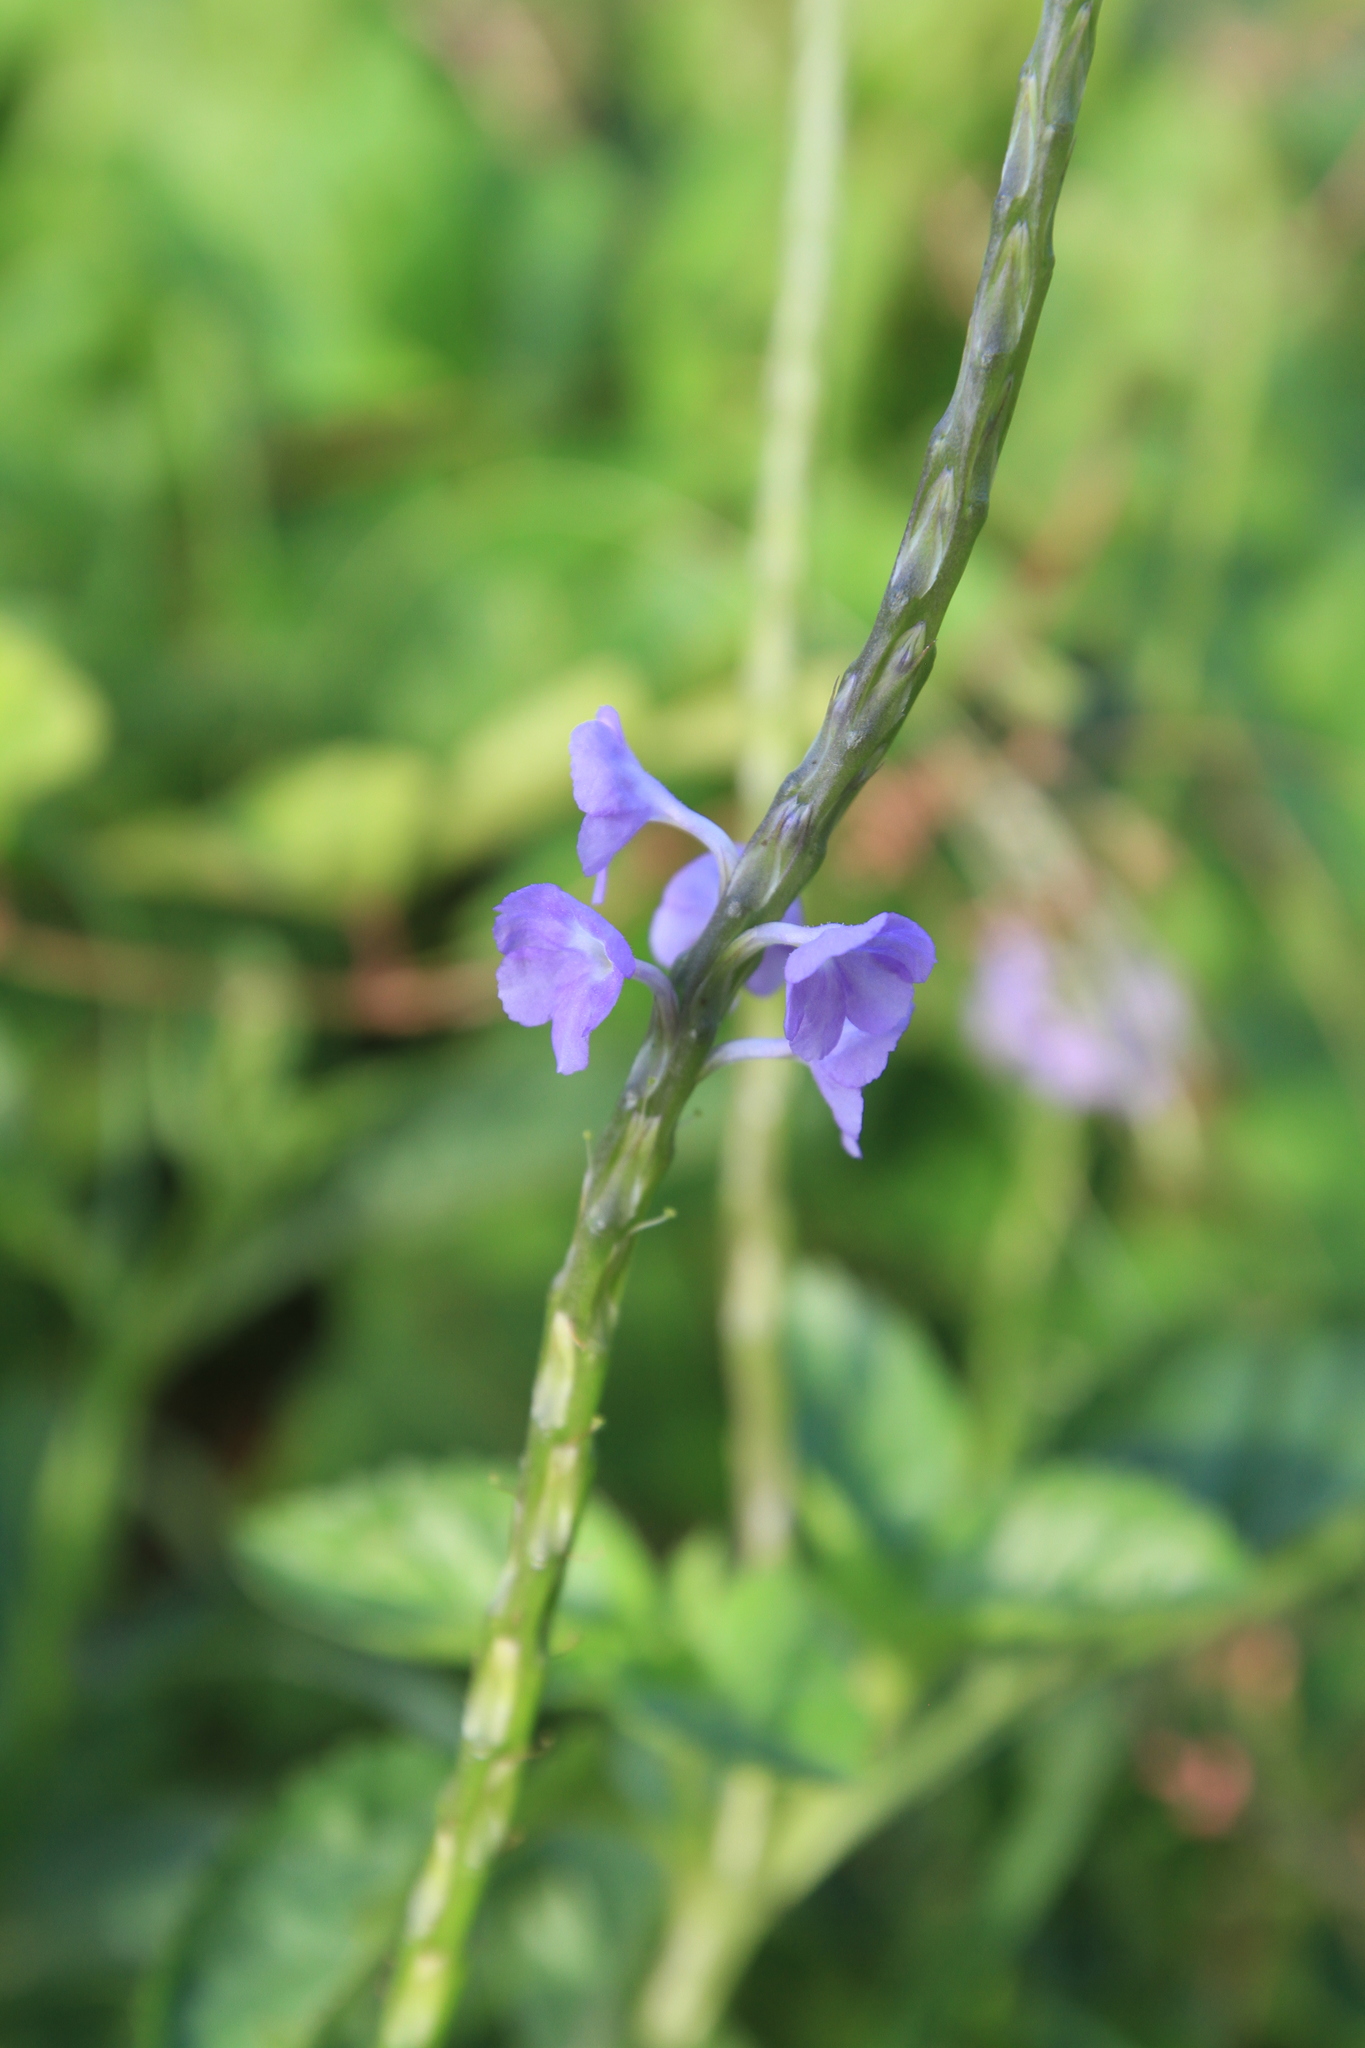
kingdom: Plantae
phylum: Tracheophyta
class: Magnoliopsida
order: Lamiales
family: Verbenaceae
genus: Stachytarpheta
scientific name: Stachytarpheta jamaicensis
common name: Light-blue snakeweed
